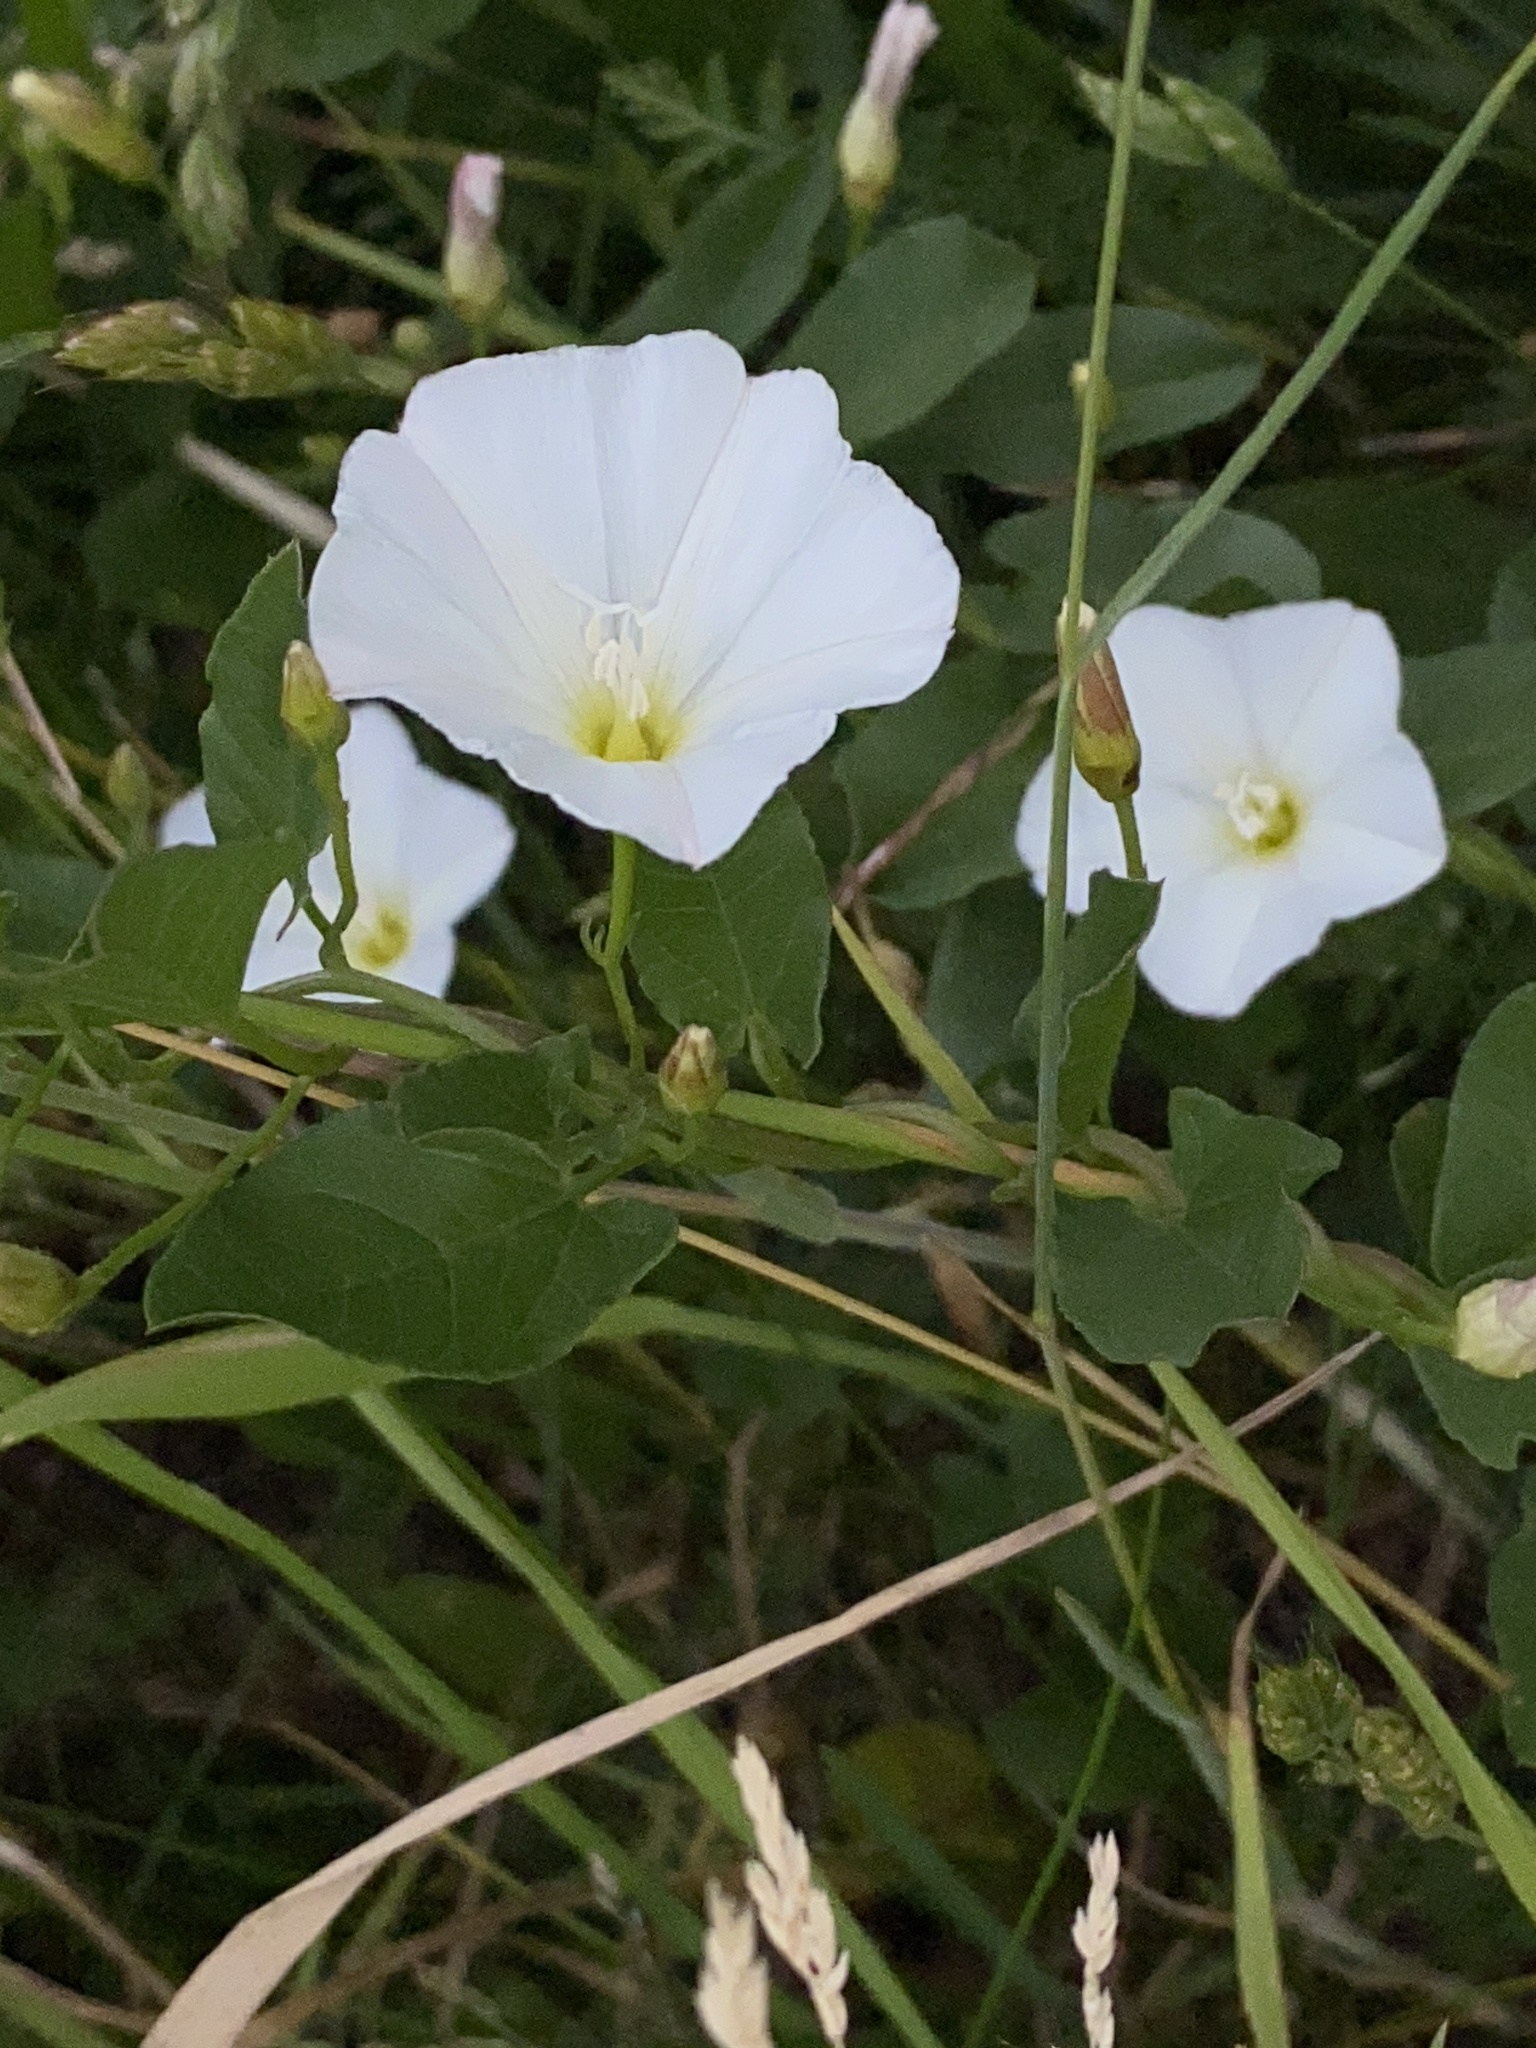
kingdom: Plantae
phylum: Tracheophyta
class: Magnoliopsida
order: Solanales
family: Convolvulaceae
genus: Convolvulus
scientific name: Convolvulus arvensis
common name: Field bindweed
